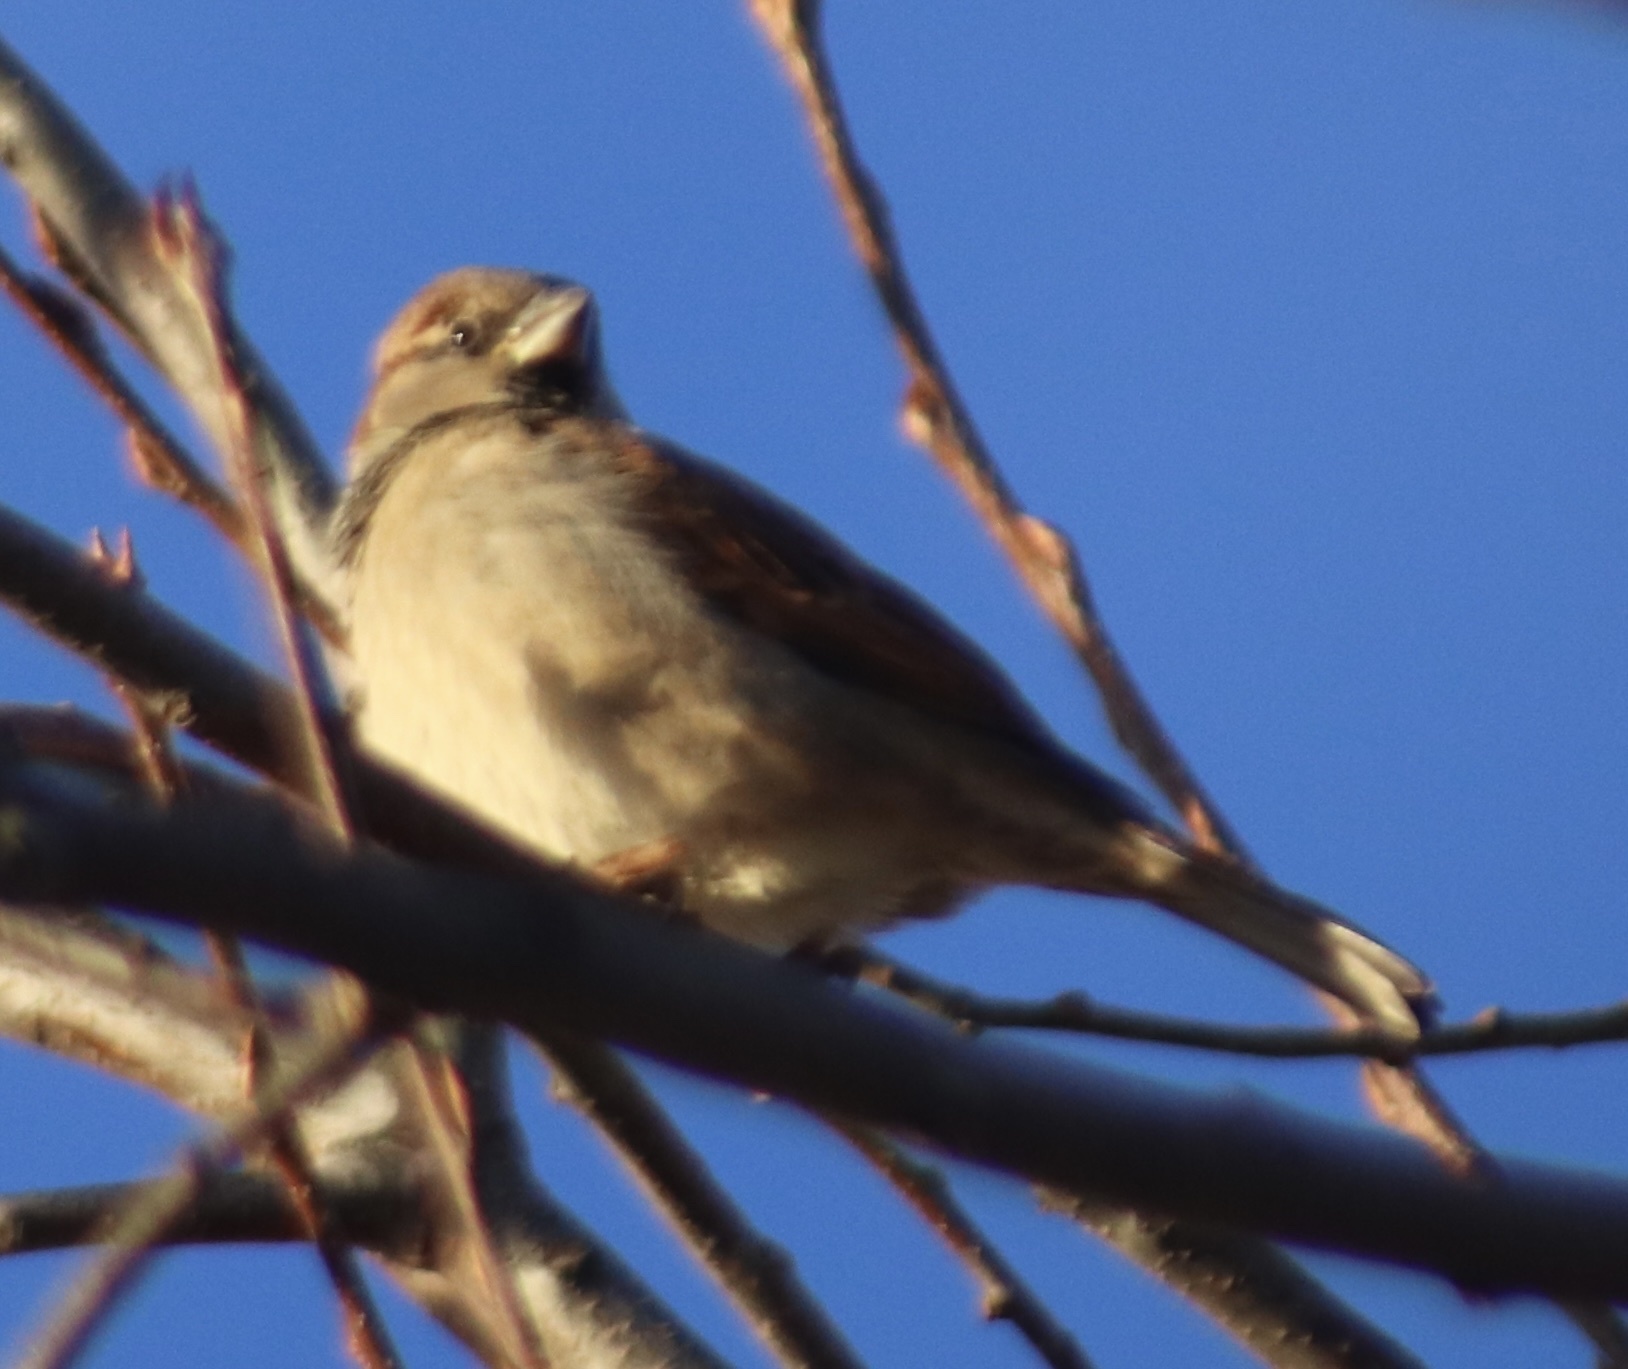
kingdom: Animalia
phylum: Chordata
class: Aves
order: Passeriformes
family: Passeridae
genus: Passer
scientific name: Passer domesticus
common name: House sparrow
